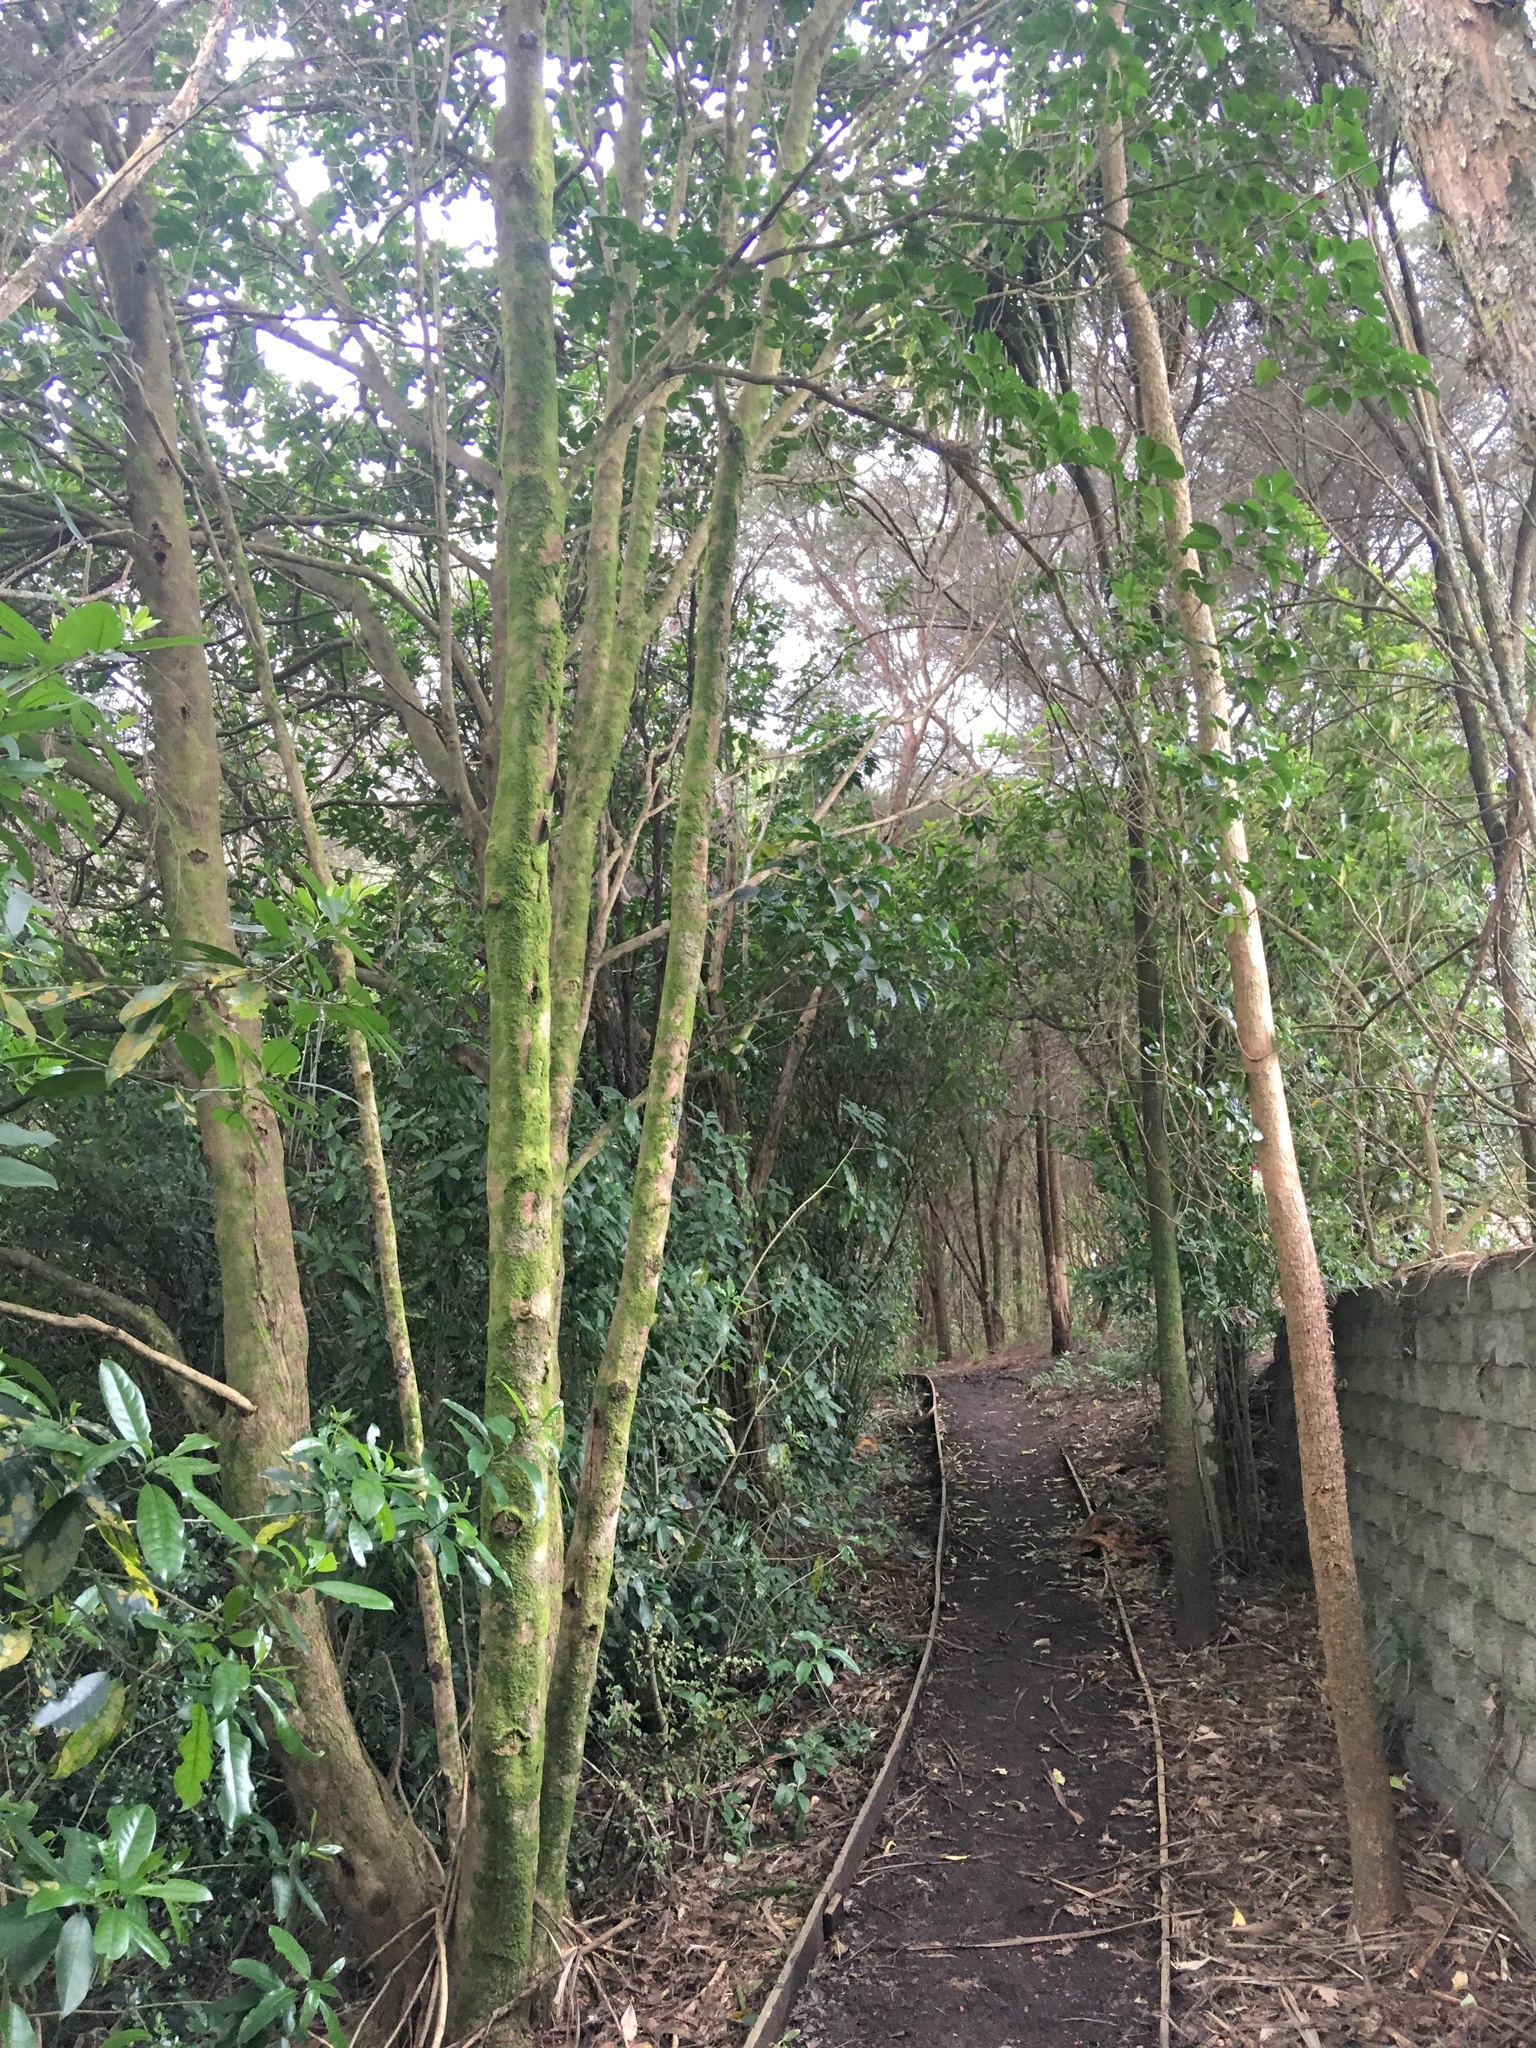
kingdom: Plantae
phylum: Tracheophyta
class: Magnoliopsida
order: Lamiales
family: Lamiaceae
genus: Vitex
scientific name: Vitex lucens
